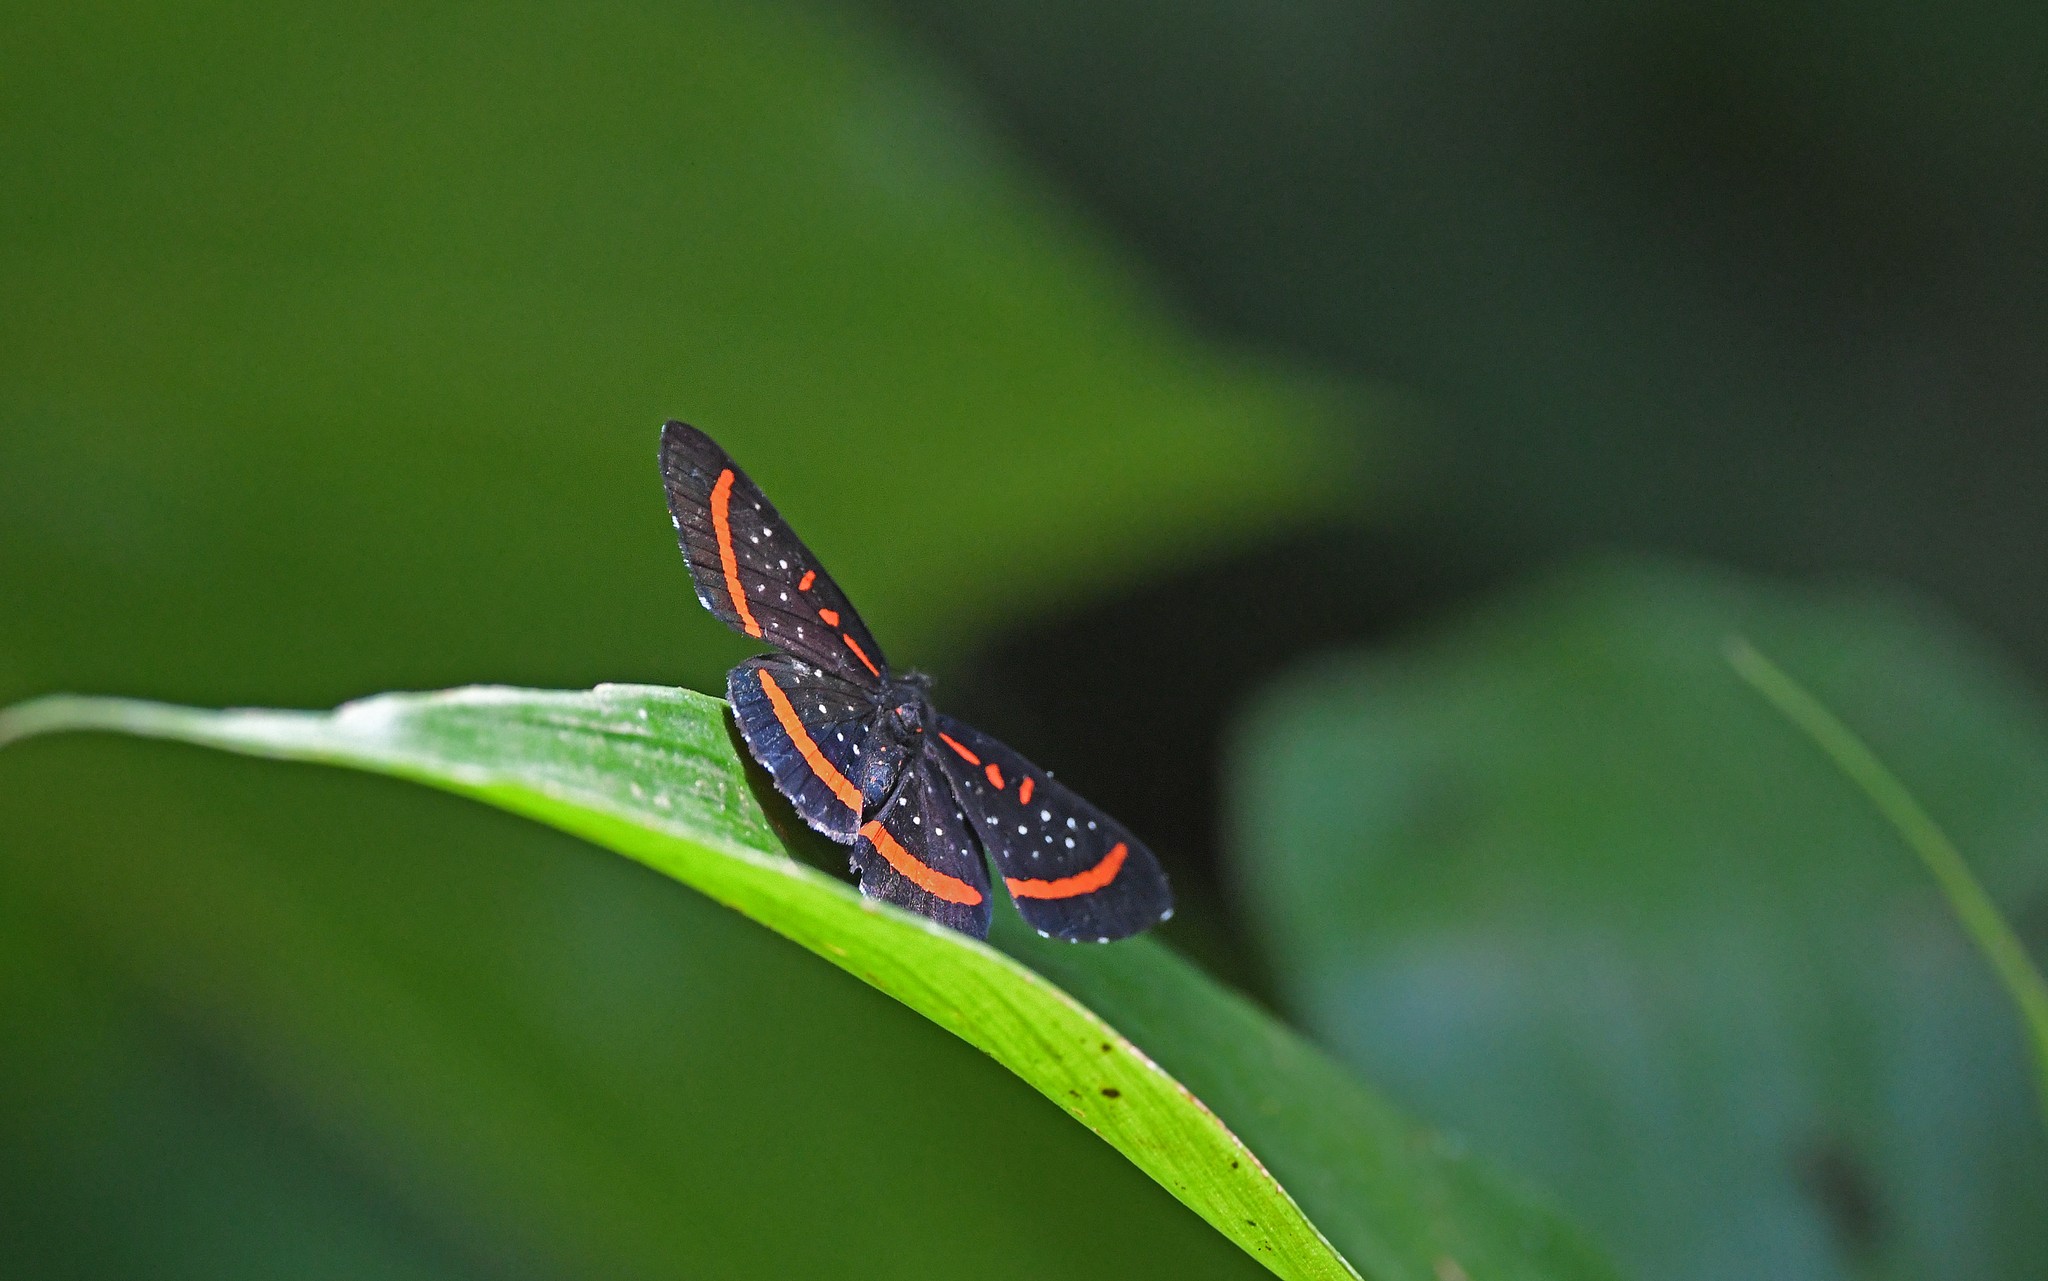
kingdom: Animalia
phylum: Arthropoda
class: Insecta
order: Lepidoptera
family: Riodinidae
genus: Amarynthis
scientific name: Amarynthis meneria
